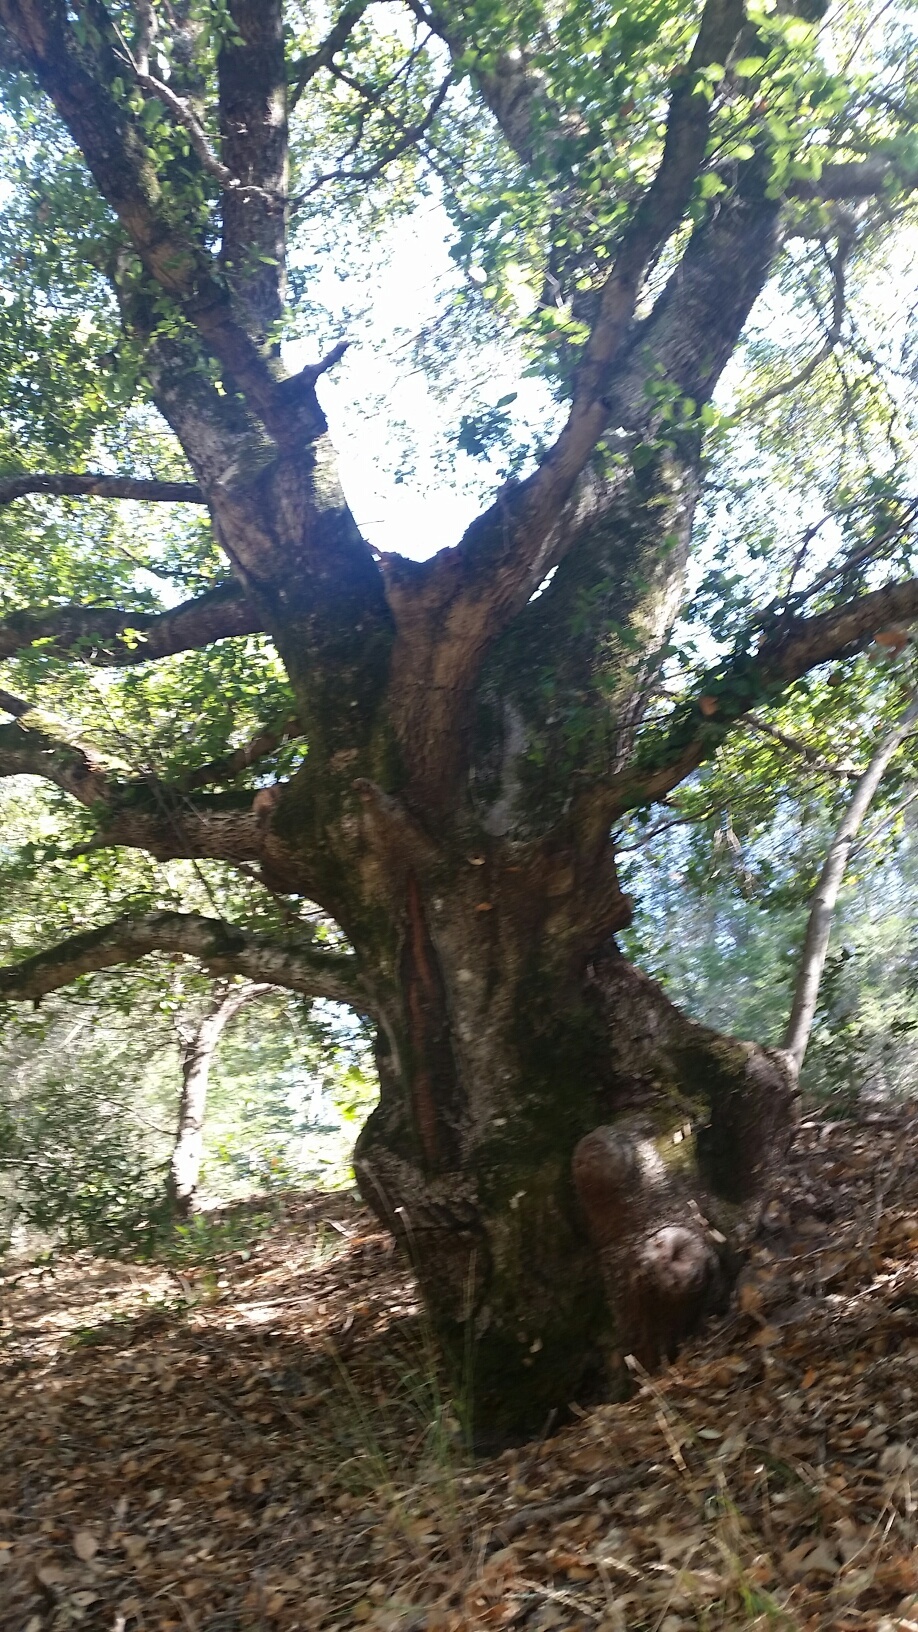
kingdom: Plantae
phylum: Tracheophyta
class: Magnoliopsida
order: Fagales
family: Fagaceae
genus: Quercus
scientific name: Quercus agrifolia
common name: California live oak
